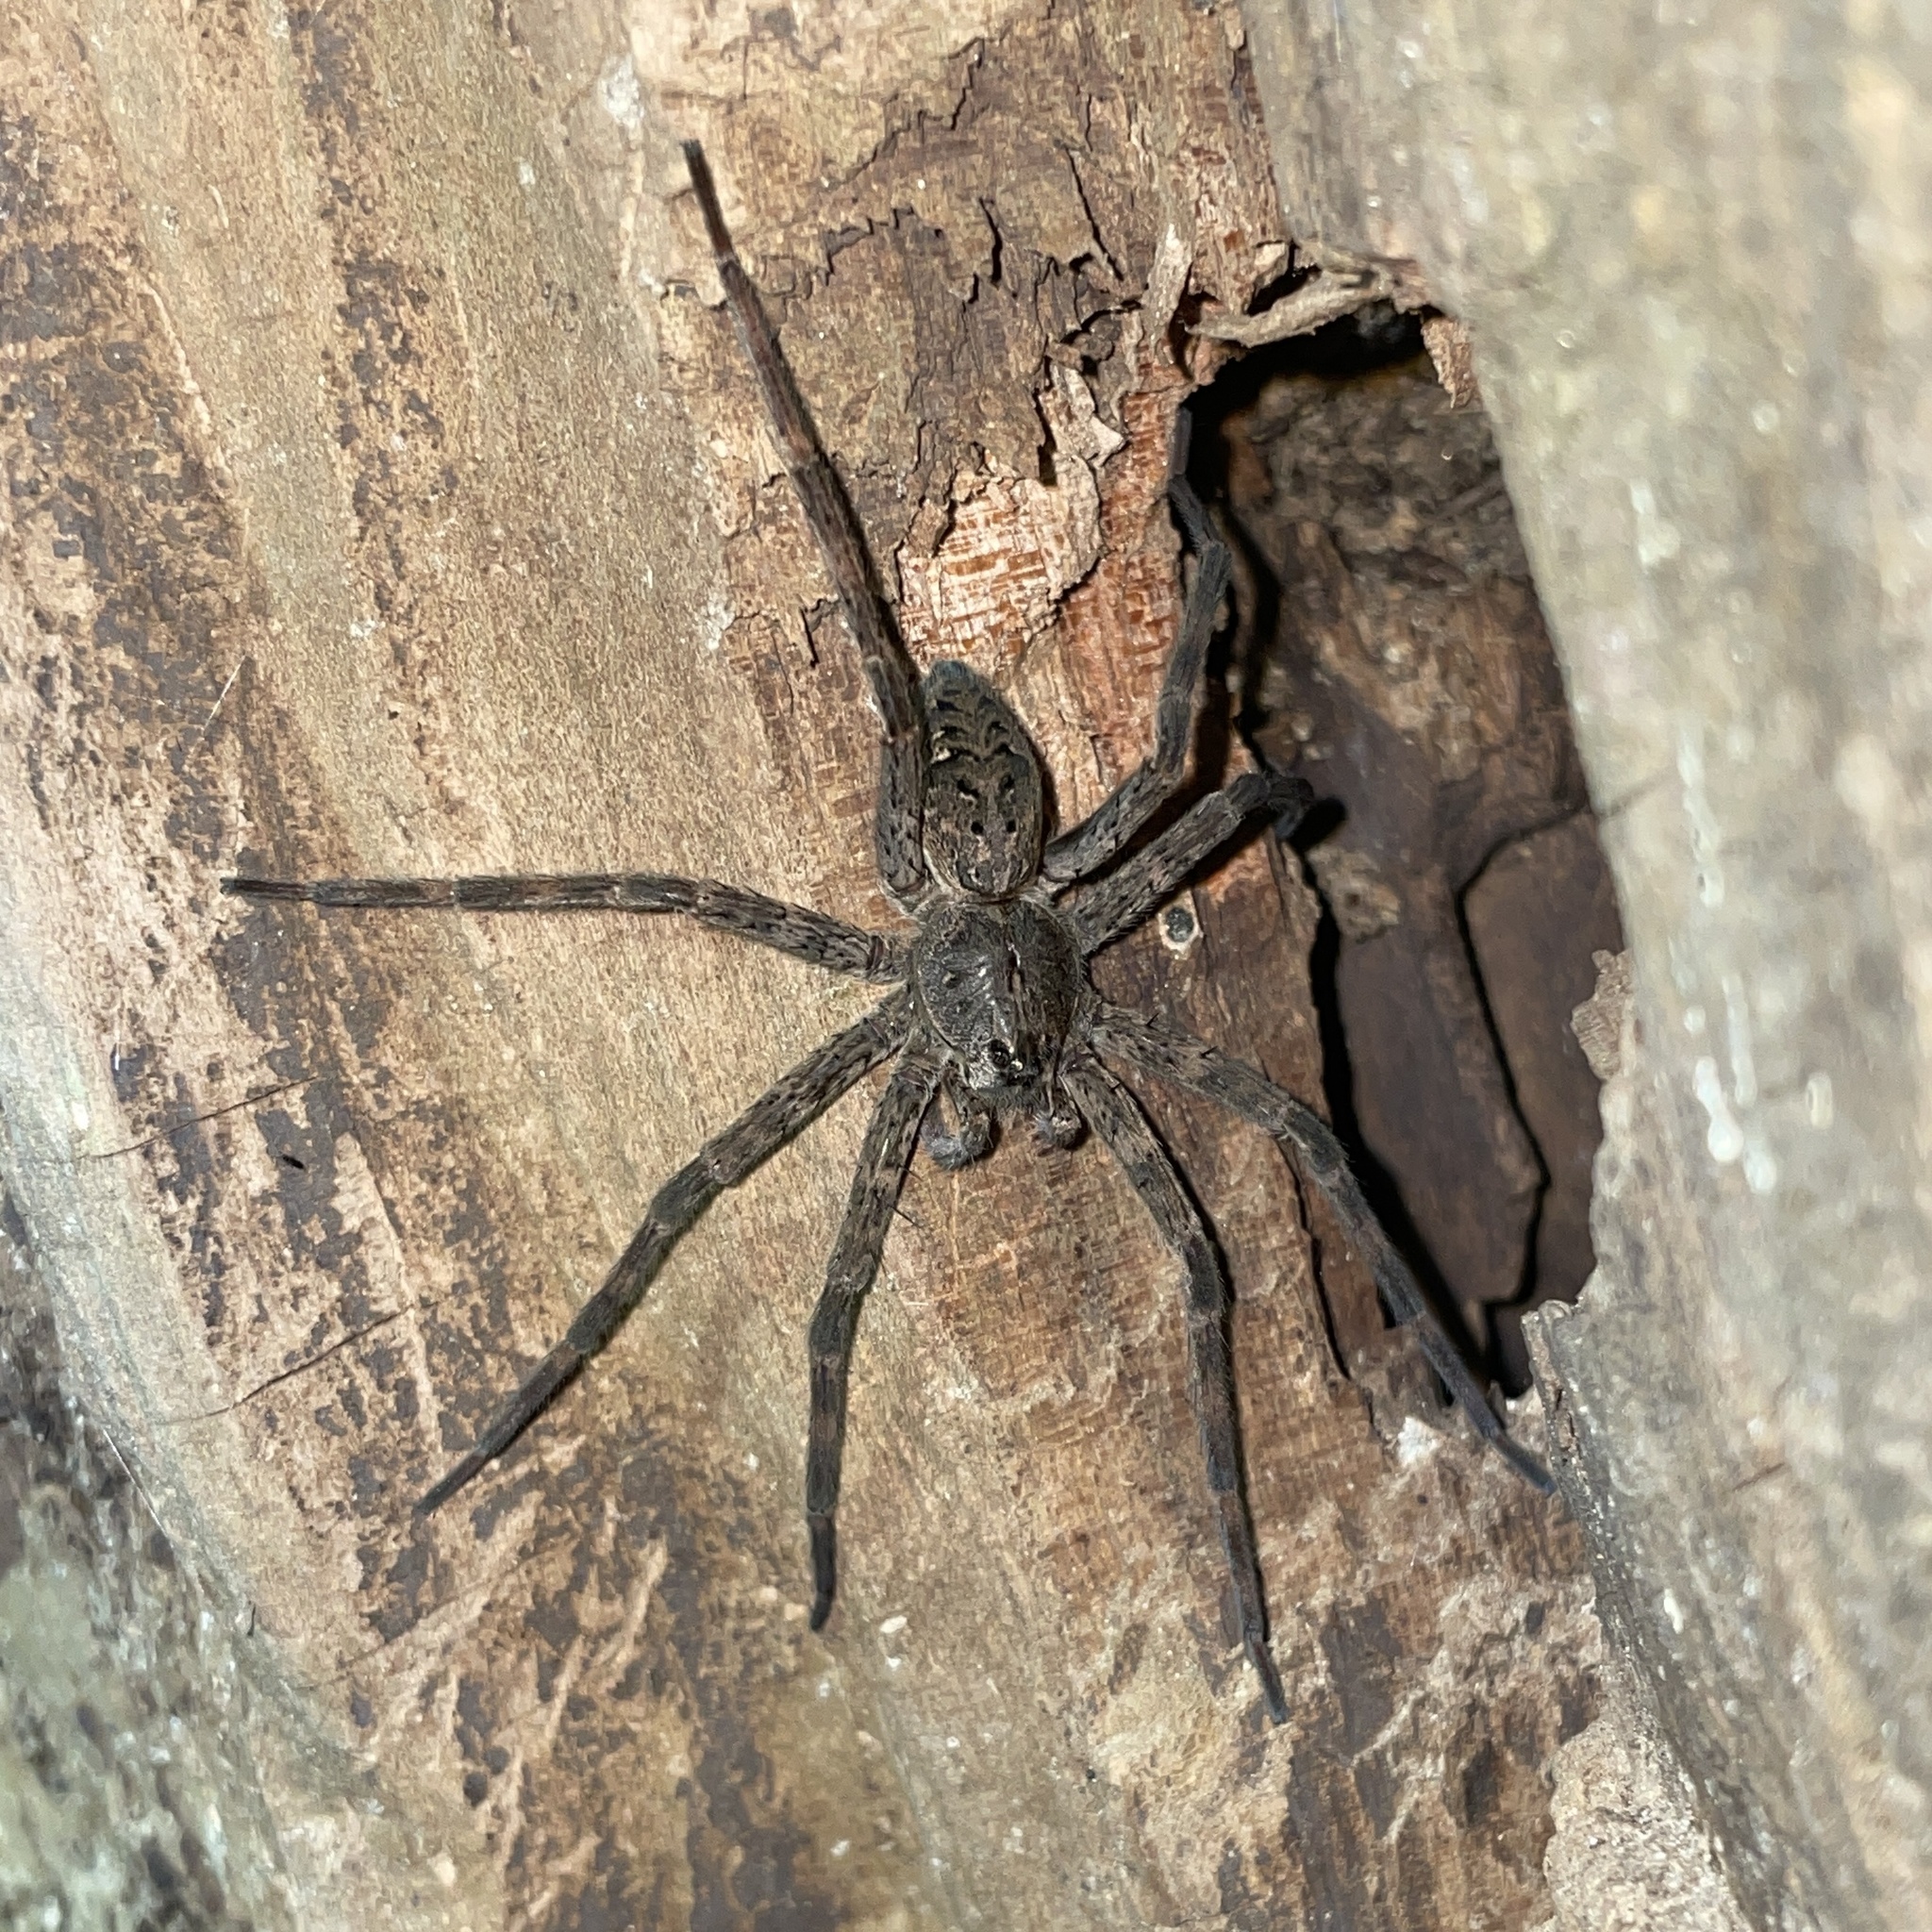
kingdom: Animalia
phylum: Arthropoda
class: Arachnida
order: Araneae
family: Pisauridae
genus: Dolomedes
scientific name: Dolomedes tenebrosus
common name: Dark fishing spider
